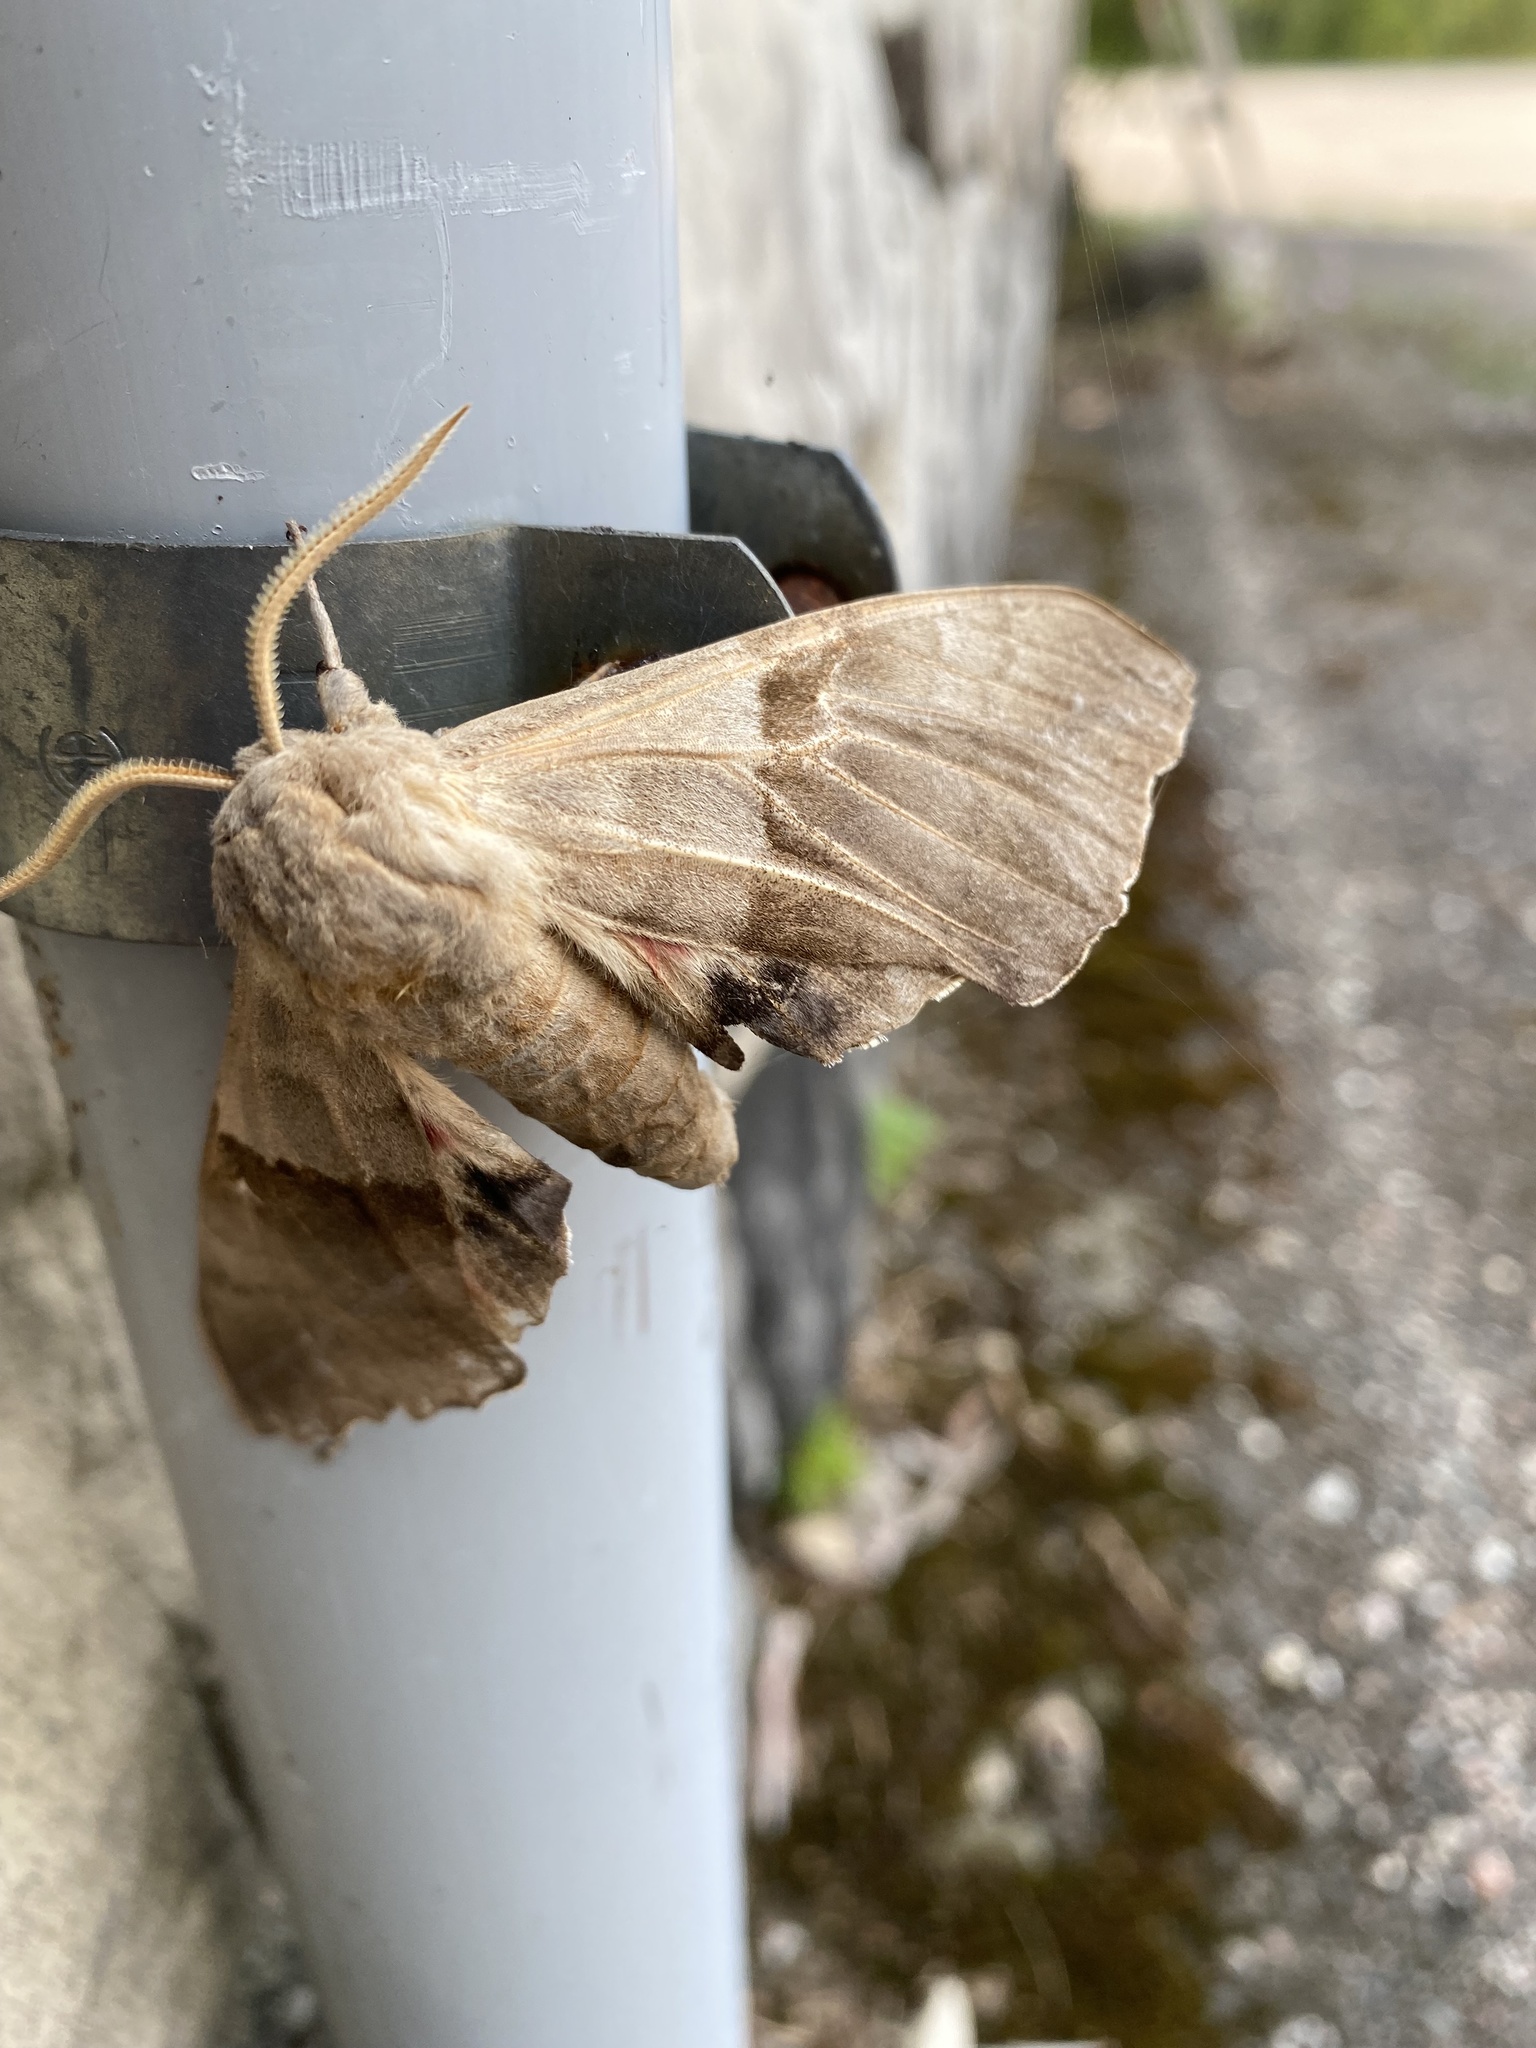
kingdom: Animalia
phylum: Arthropoda
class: Insecta
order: Lepidoptera
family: Sphingidae
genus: Pachysphinx
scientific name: Pachysphinx modesta
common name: Big poplar sphinx
